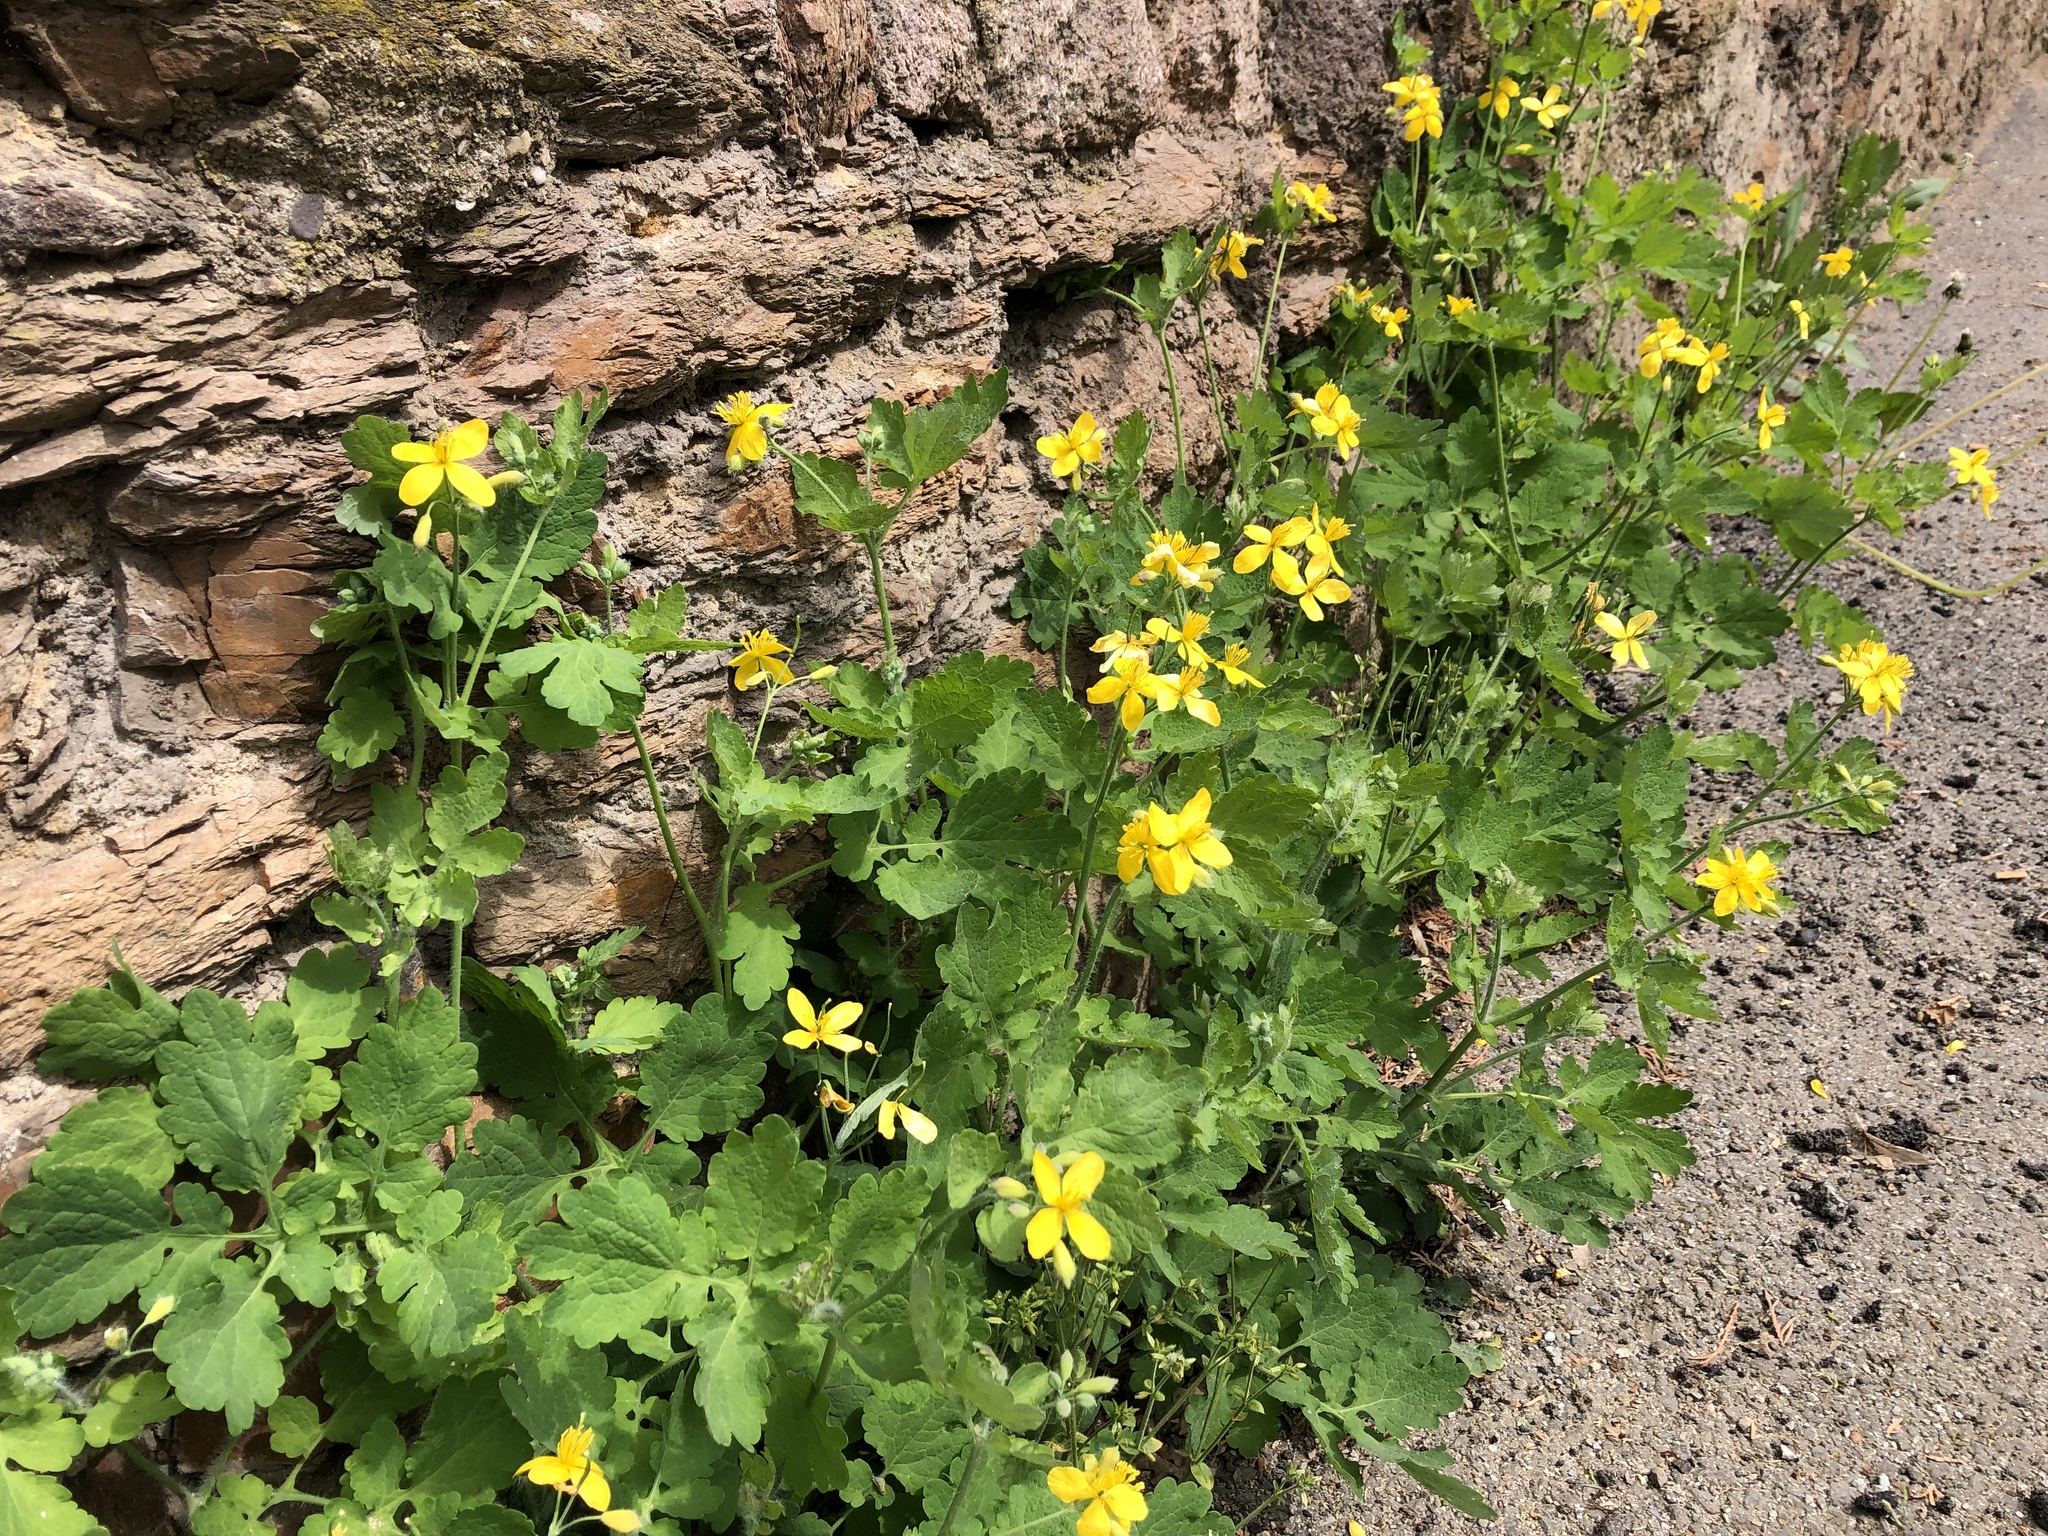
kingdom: Plantae
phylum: Tracheophyta
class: Magnoliopsida
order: Ranunculales
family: Papaveraceae
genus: Chelidonium
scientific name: Chelidonium majus
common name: Greater celandine
